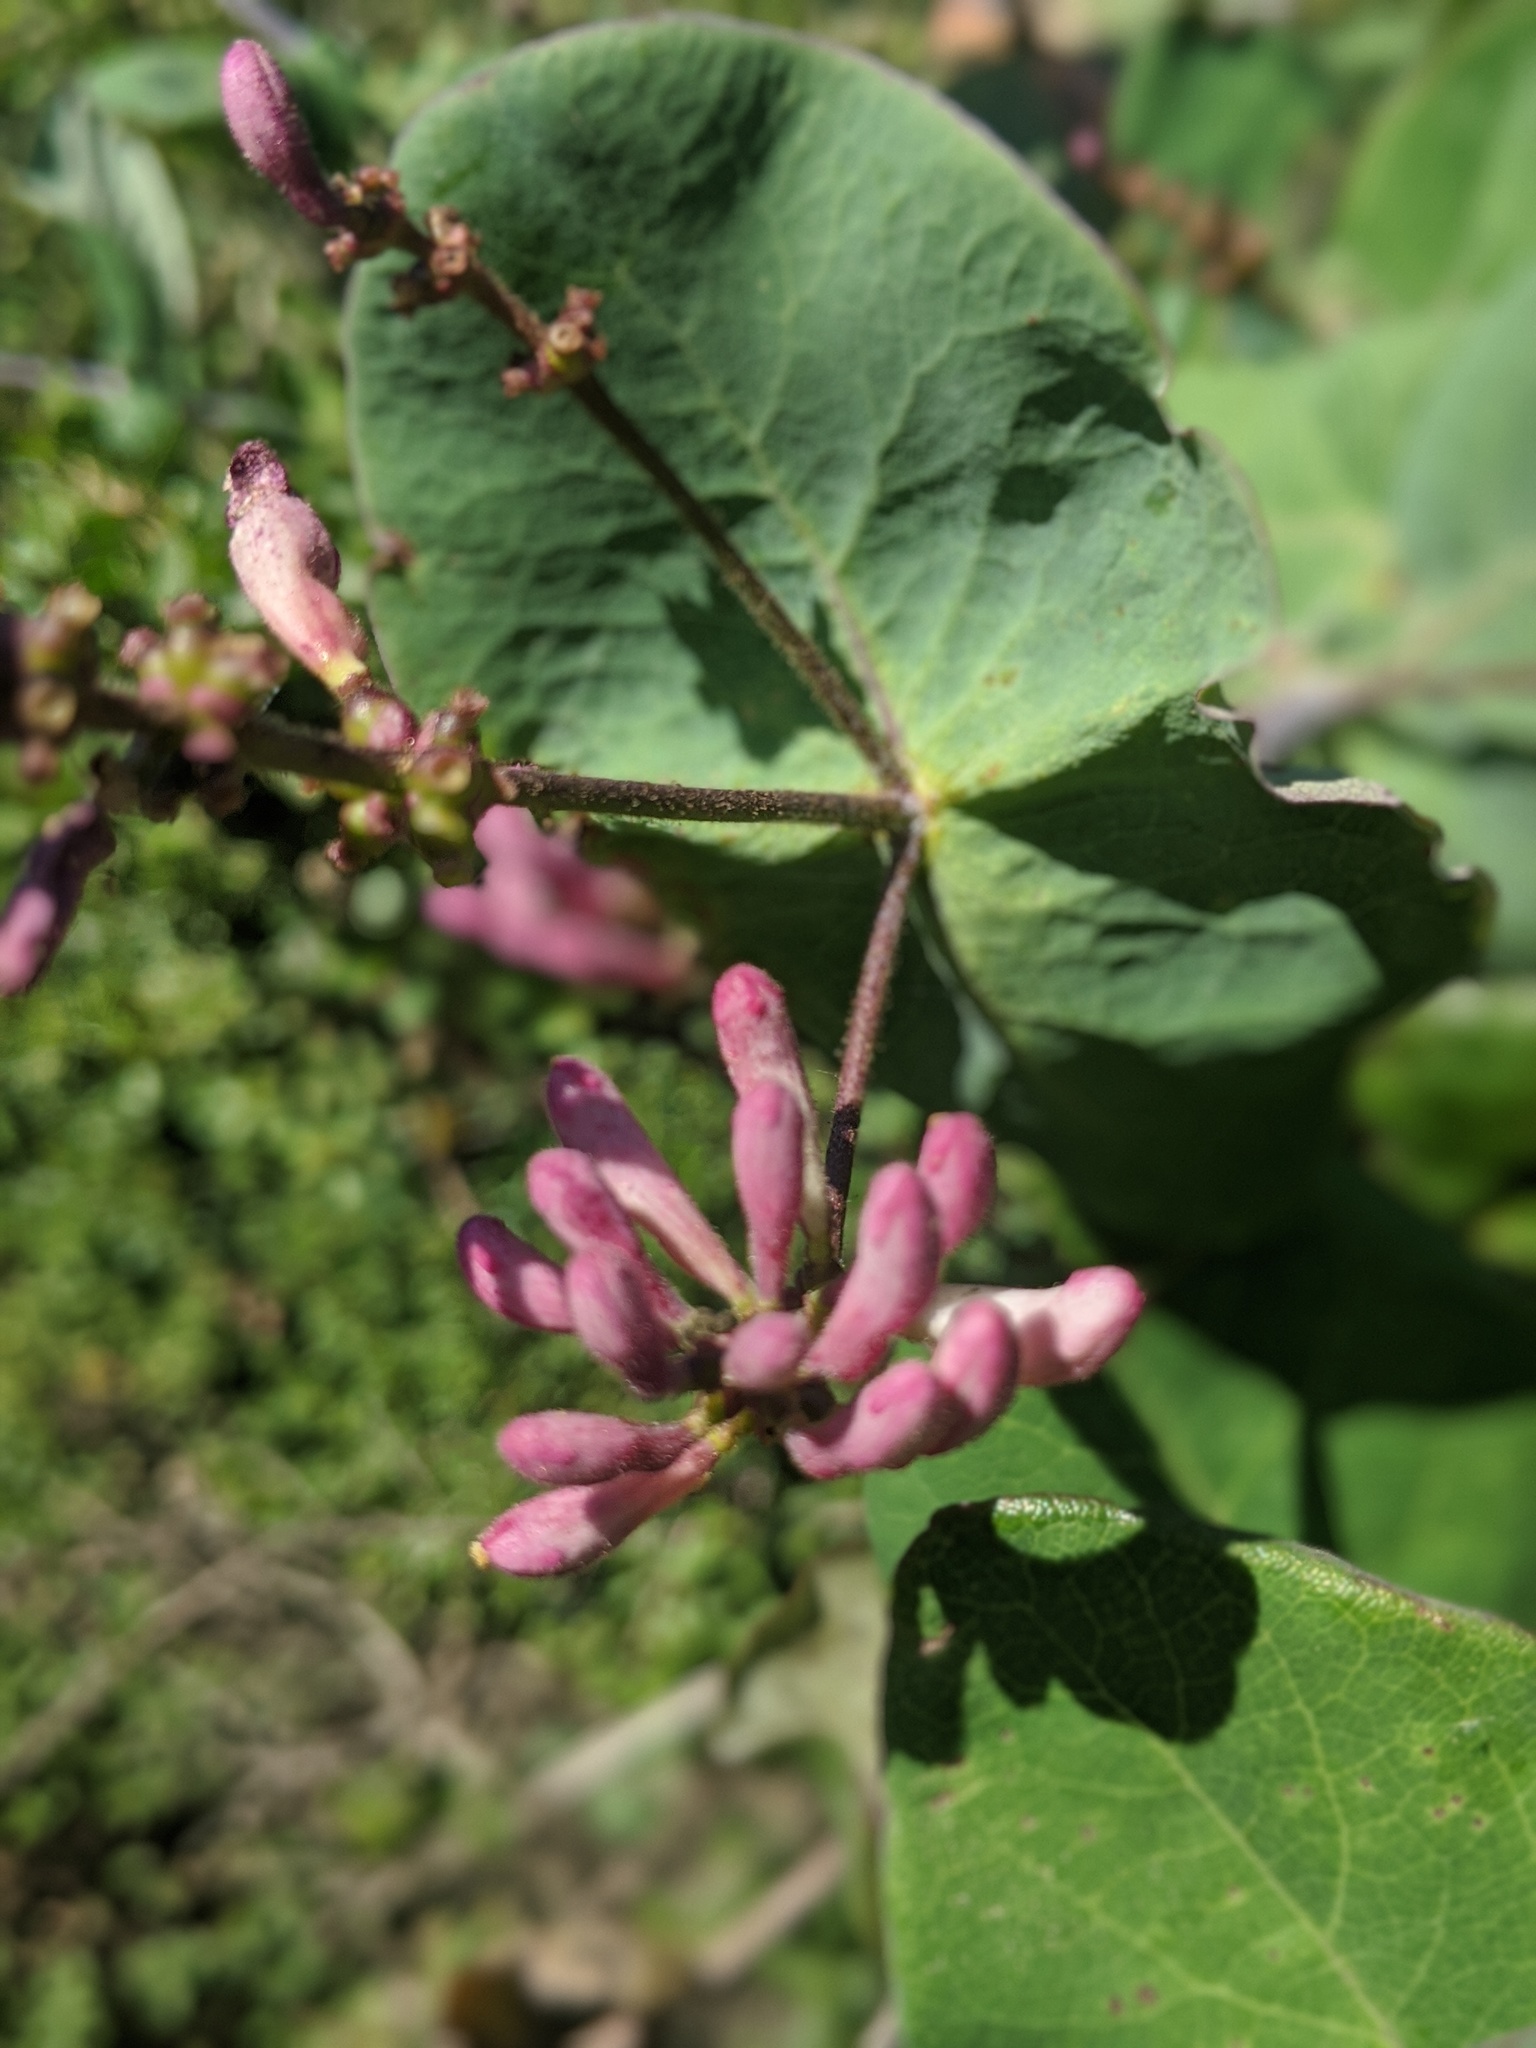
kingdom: Plantae
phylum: Tracheophyta
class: Magnoliopsida
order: Dipsacales
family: Caprifoliaceae
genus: Lonicera
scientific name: Lonicera hispidula
